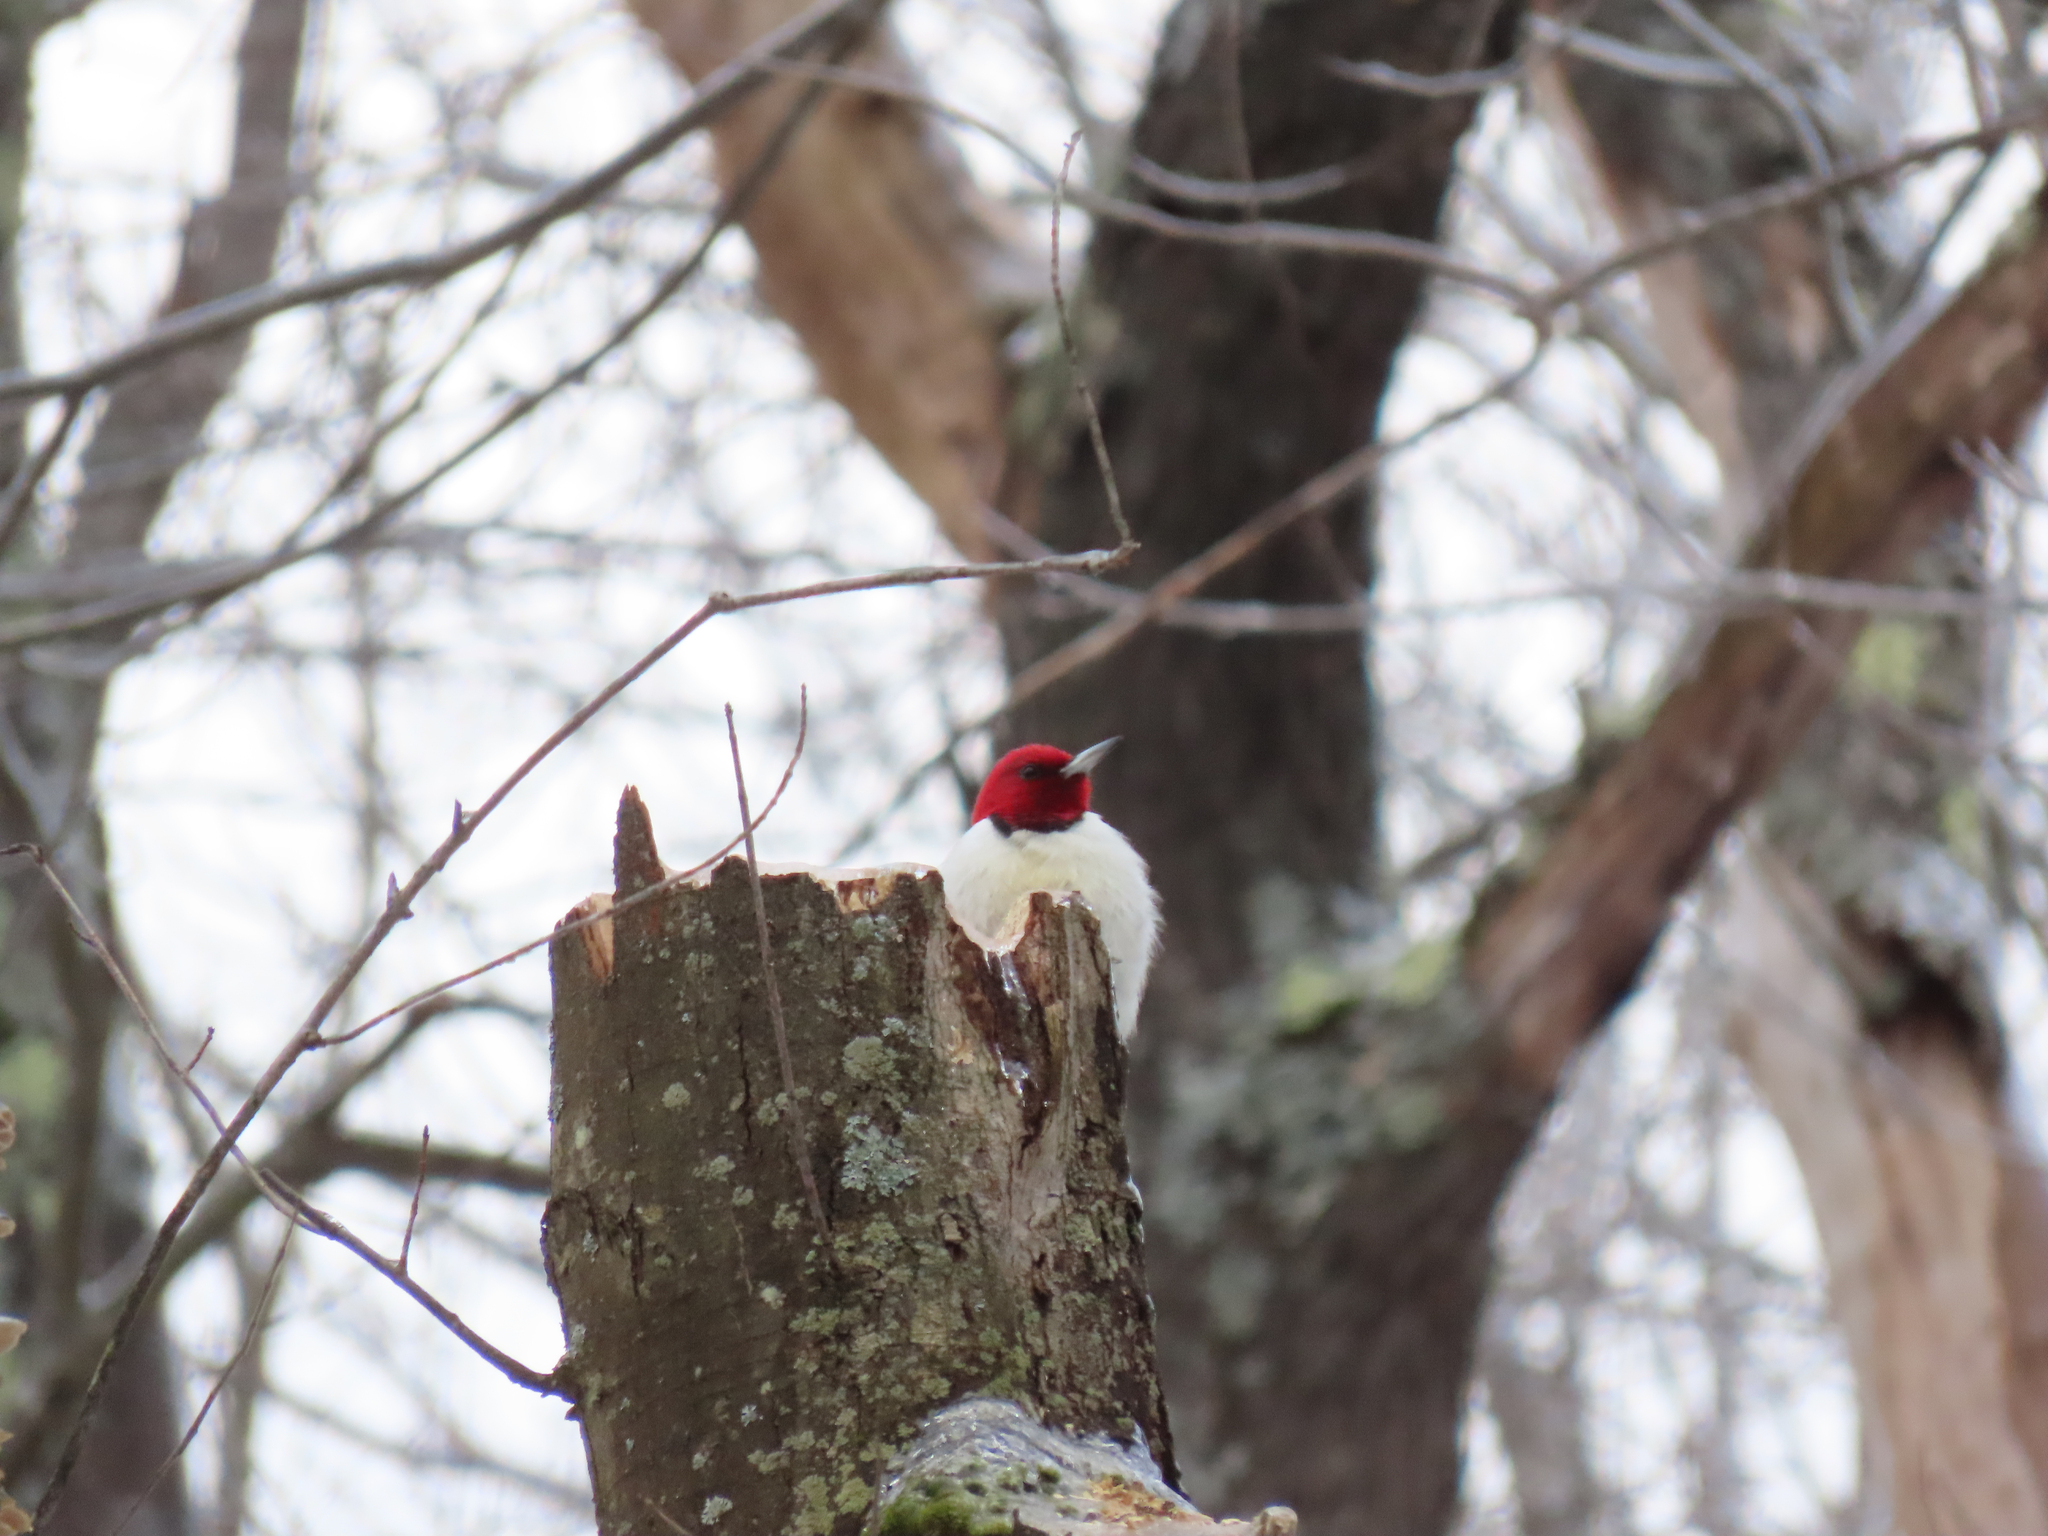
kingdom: Animalia
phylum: Chordata
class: Aves
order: Piciformes
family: Picidae
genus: Melanerpes
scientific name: Melanerpes erythrocephalus
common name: Red-headed woodpecker
